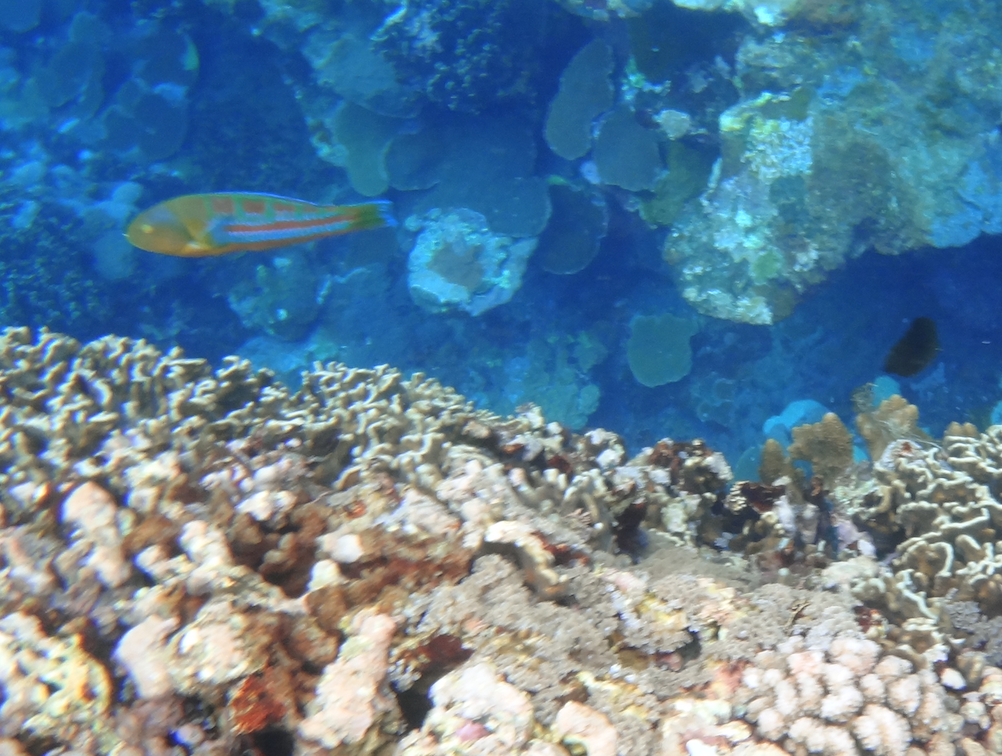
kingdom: Animalia
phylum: Chordata
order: Perciformes
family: Labridae
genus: Thalassoma
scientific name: Thalassoma trilobatum
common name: Christmas wrasse
